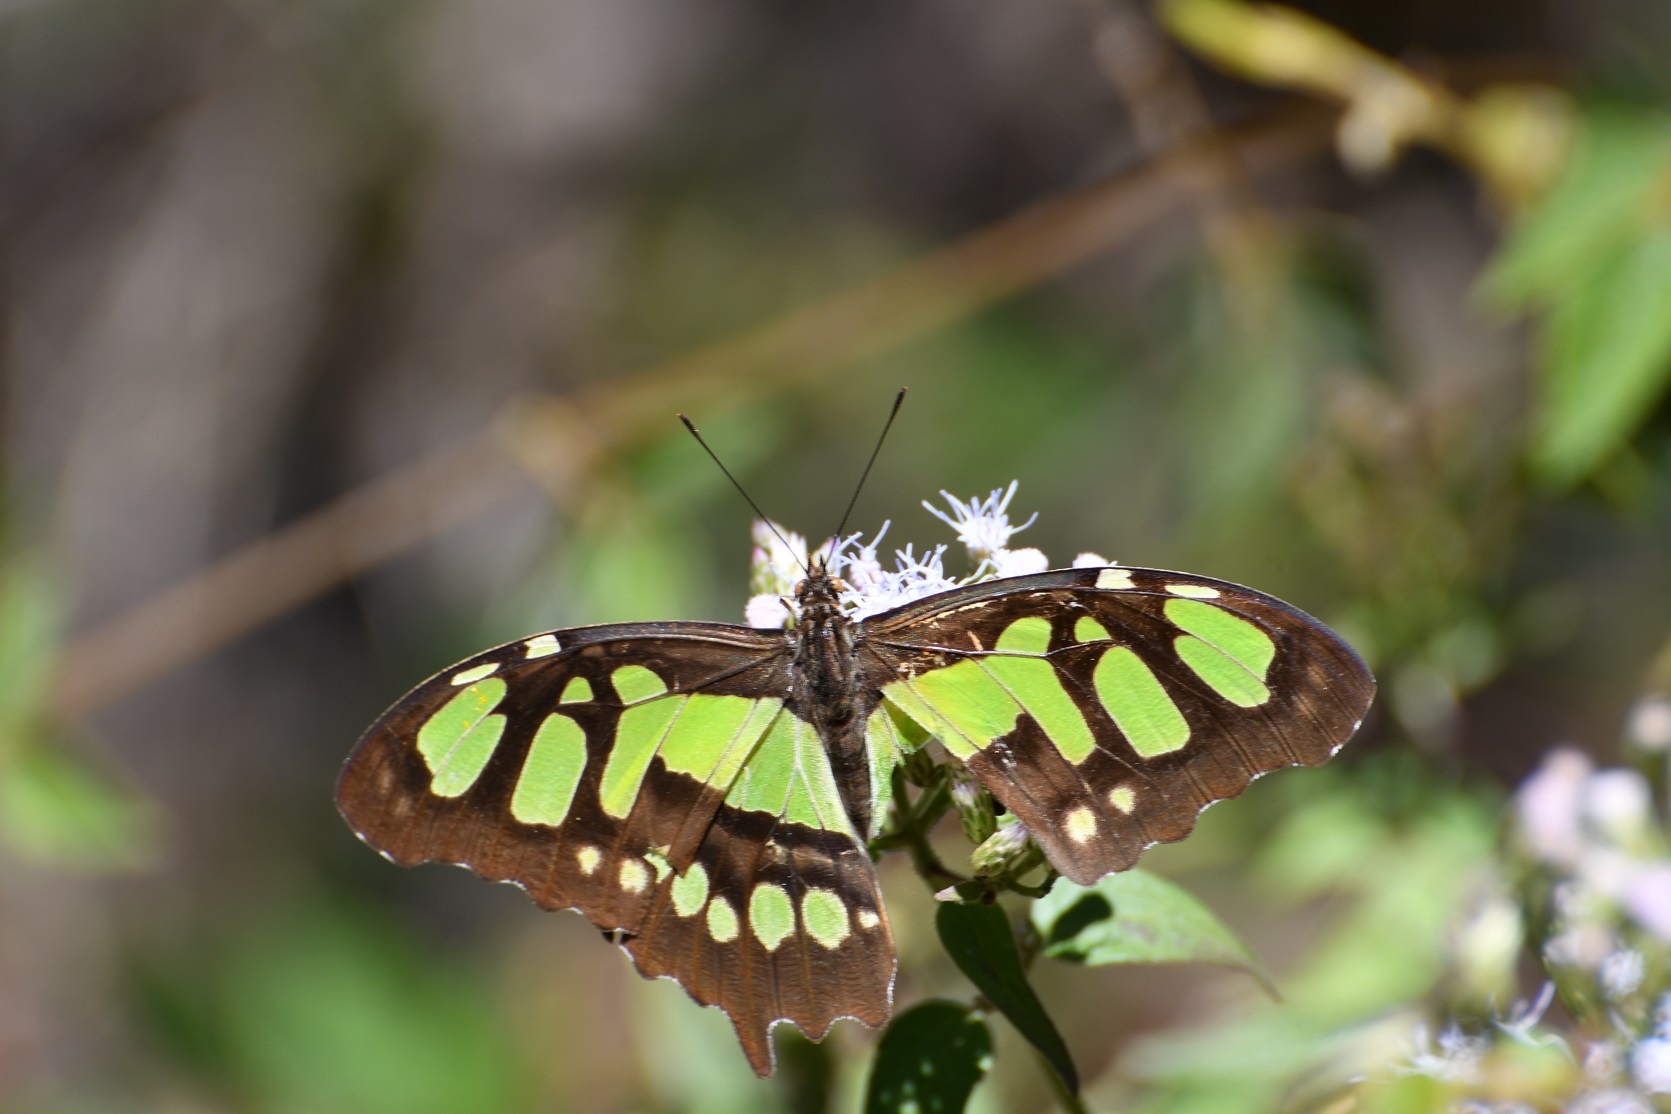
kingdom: Animalia
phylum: Arthropoda
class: Insecta
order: Lepidoptera
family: Nymphalidae
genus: Siproeta
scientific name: Siproeta stelenes
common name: Malachite
